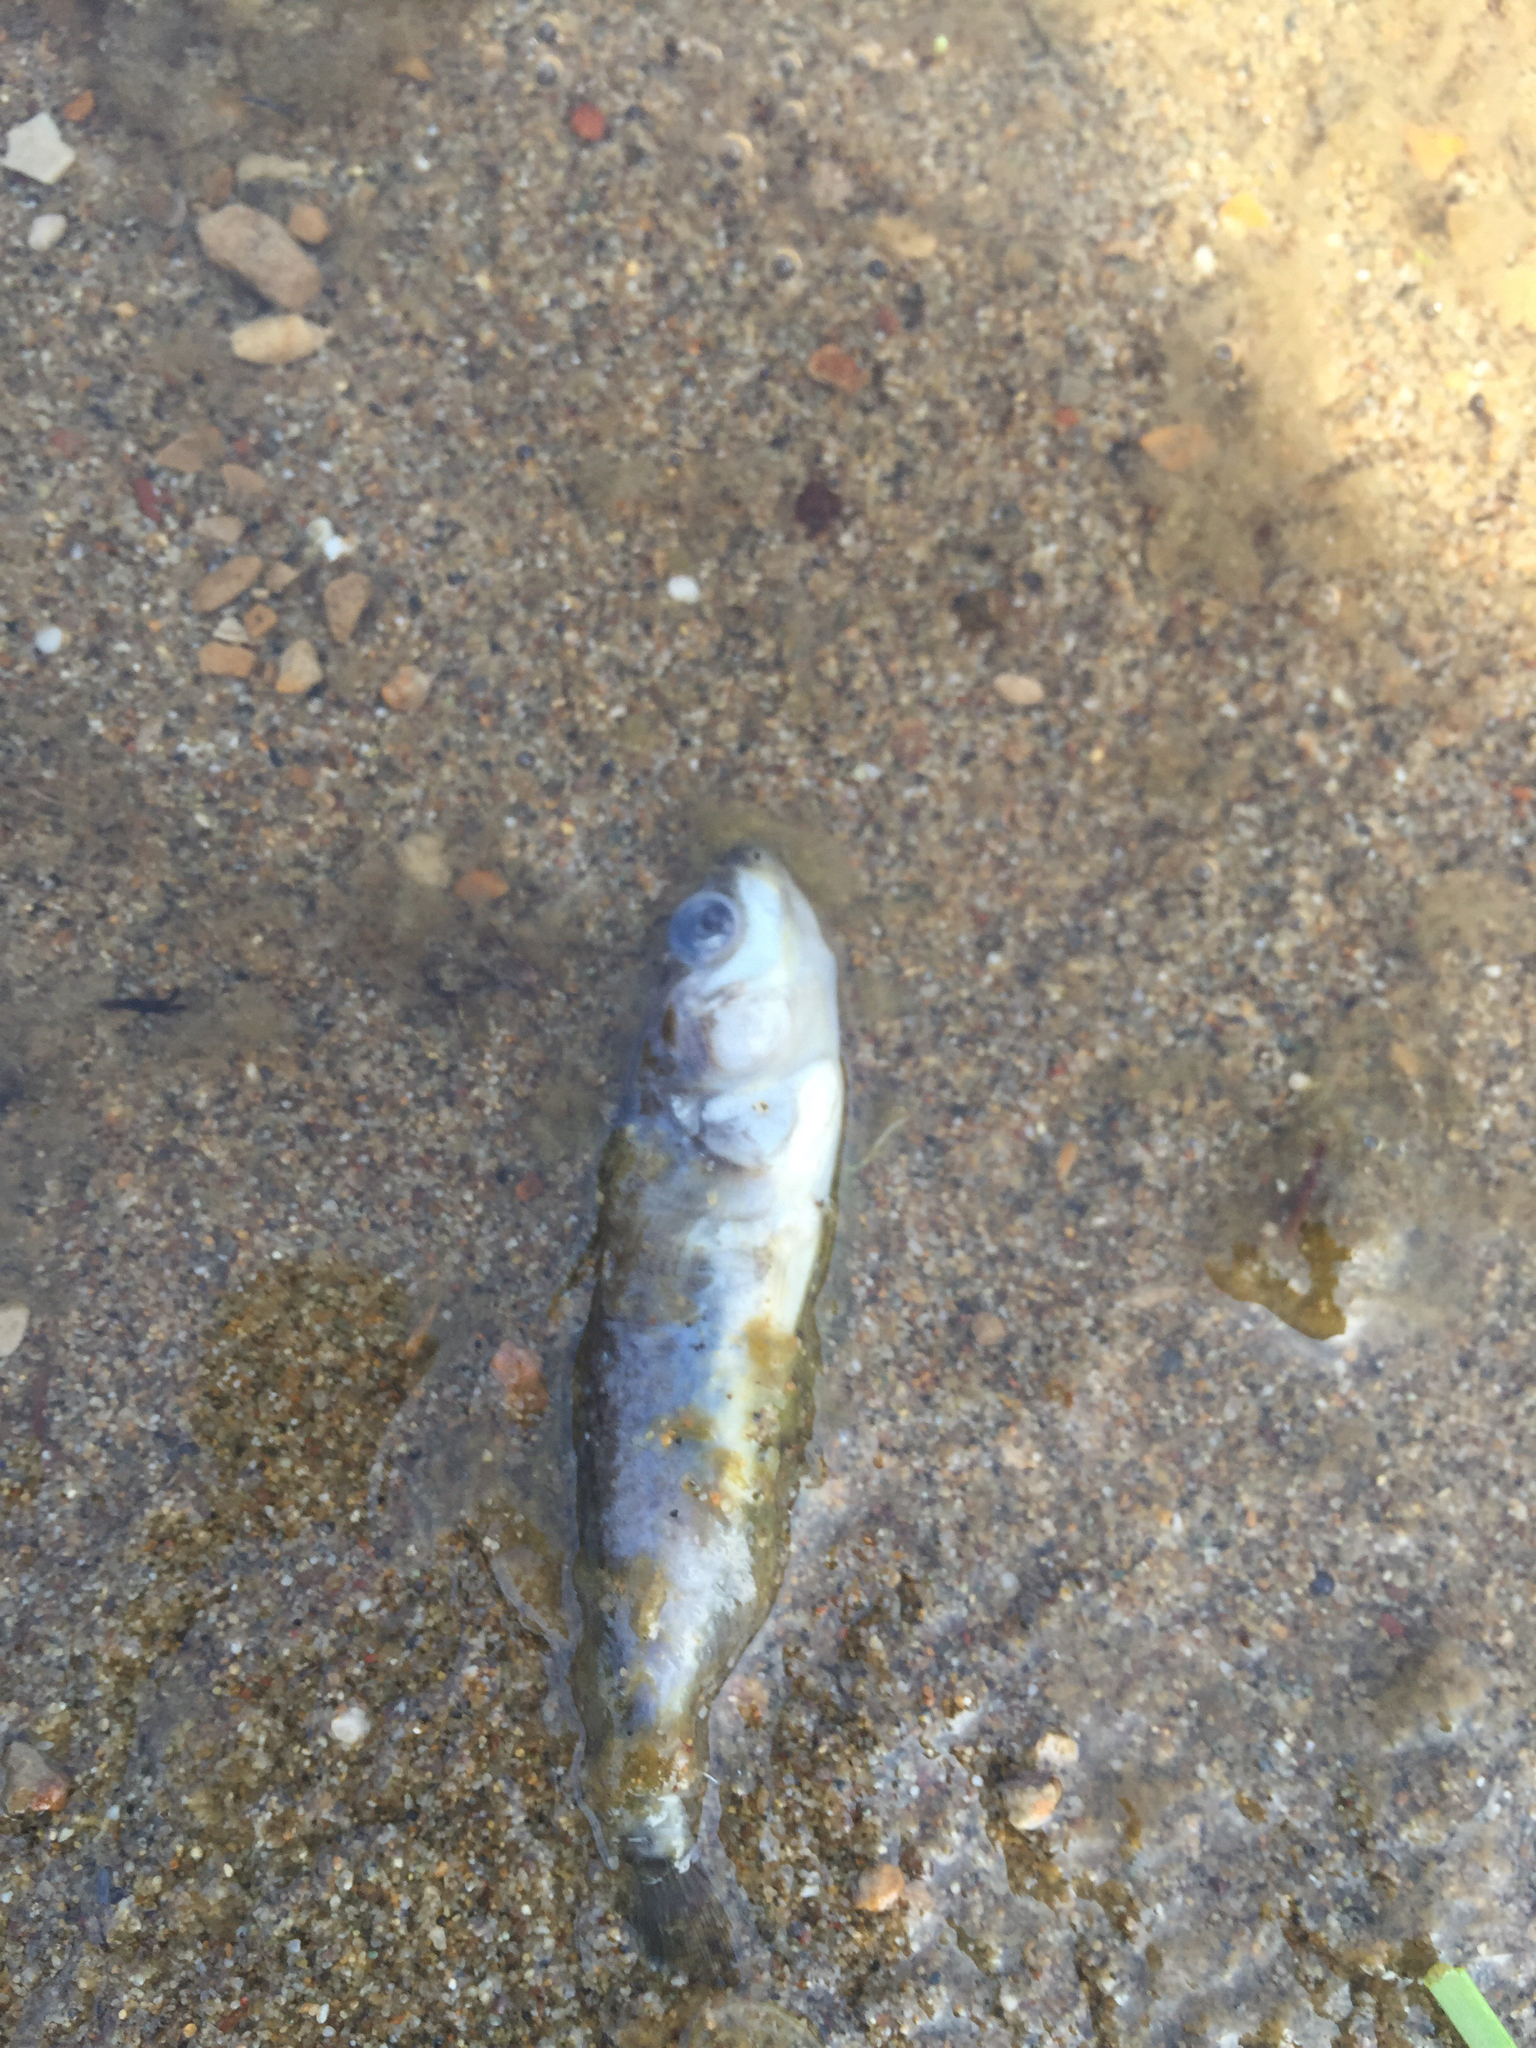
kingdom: Animalia
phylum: Chordata
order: Gasterosteiformes
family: Gasterosteidae
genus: Gasterosteus
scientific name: Gasterosteus aculeatus
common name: Three-spined stickleback
